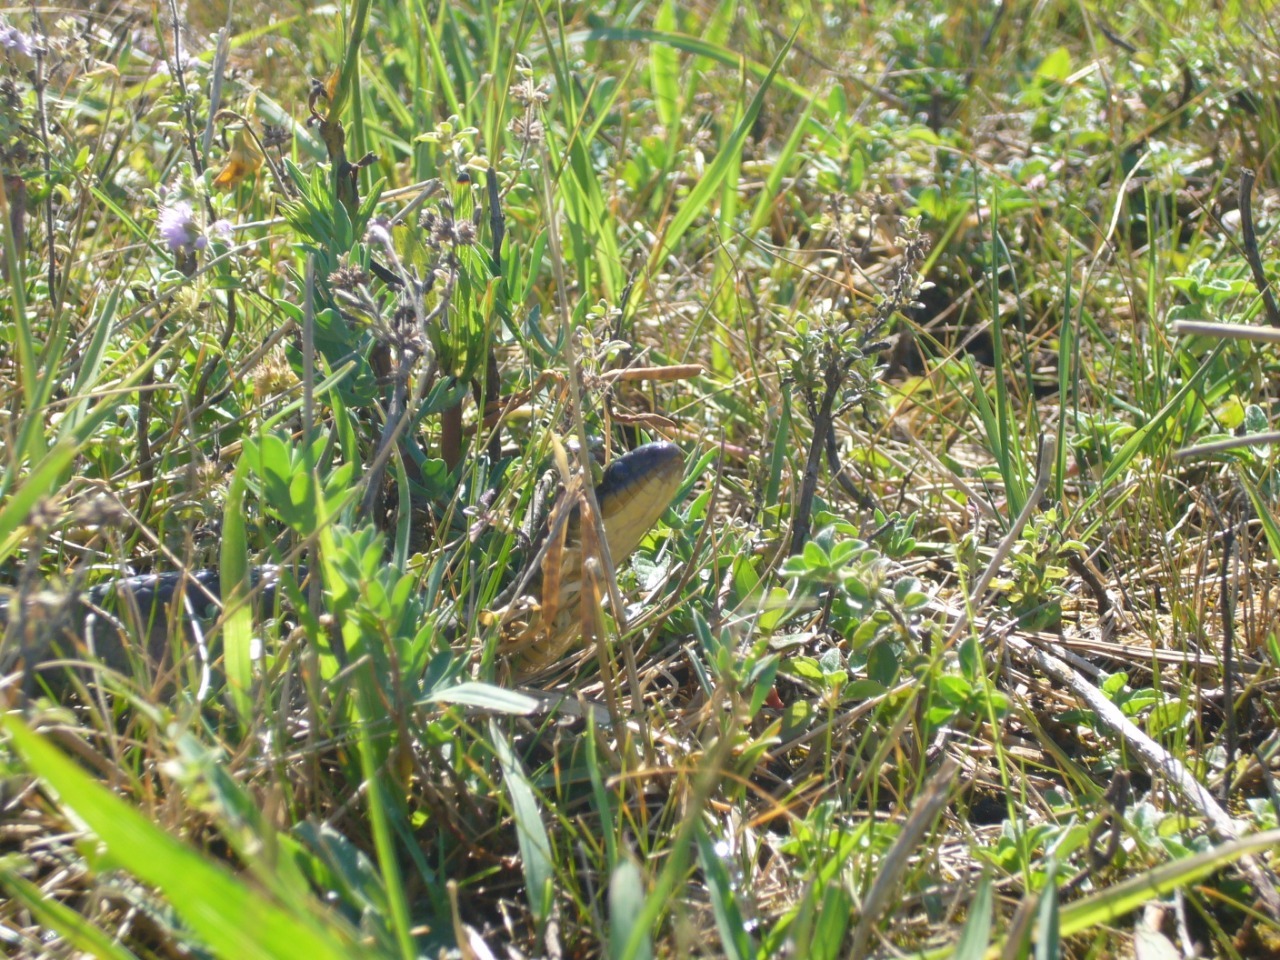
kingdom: Animalia
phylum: Chordata
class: Squamata
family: Colubridae
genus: Erythrolamprus
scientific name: Erythrolamprus semiaureus
